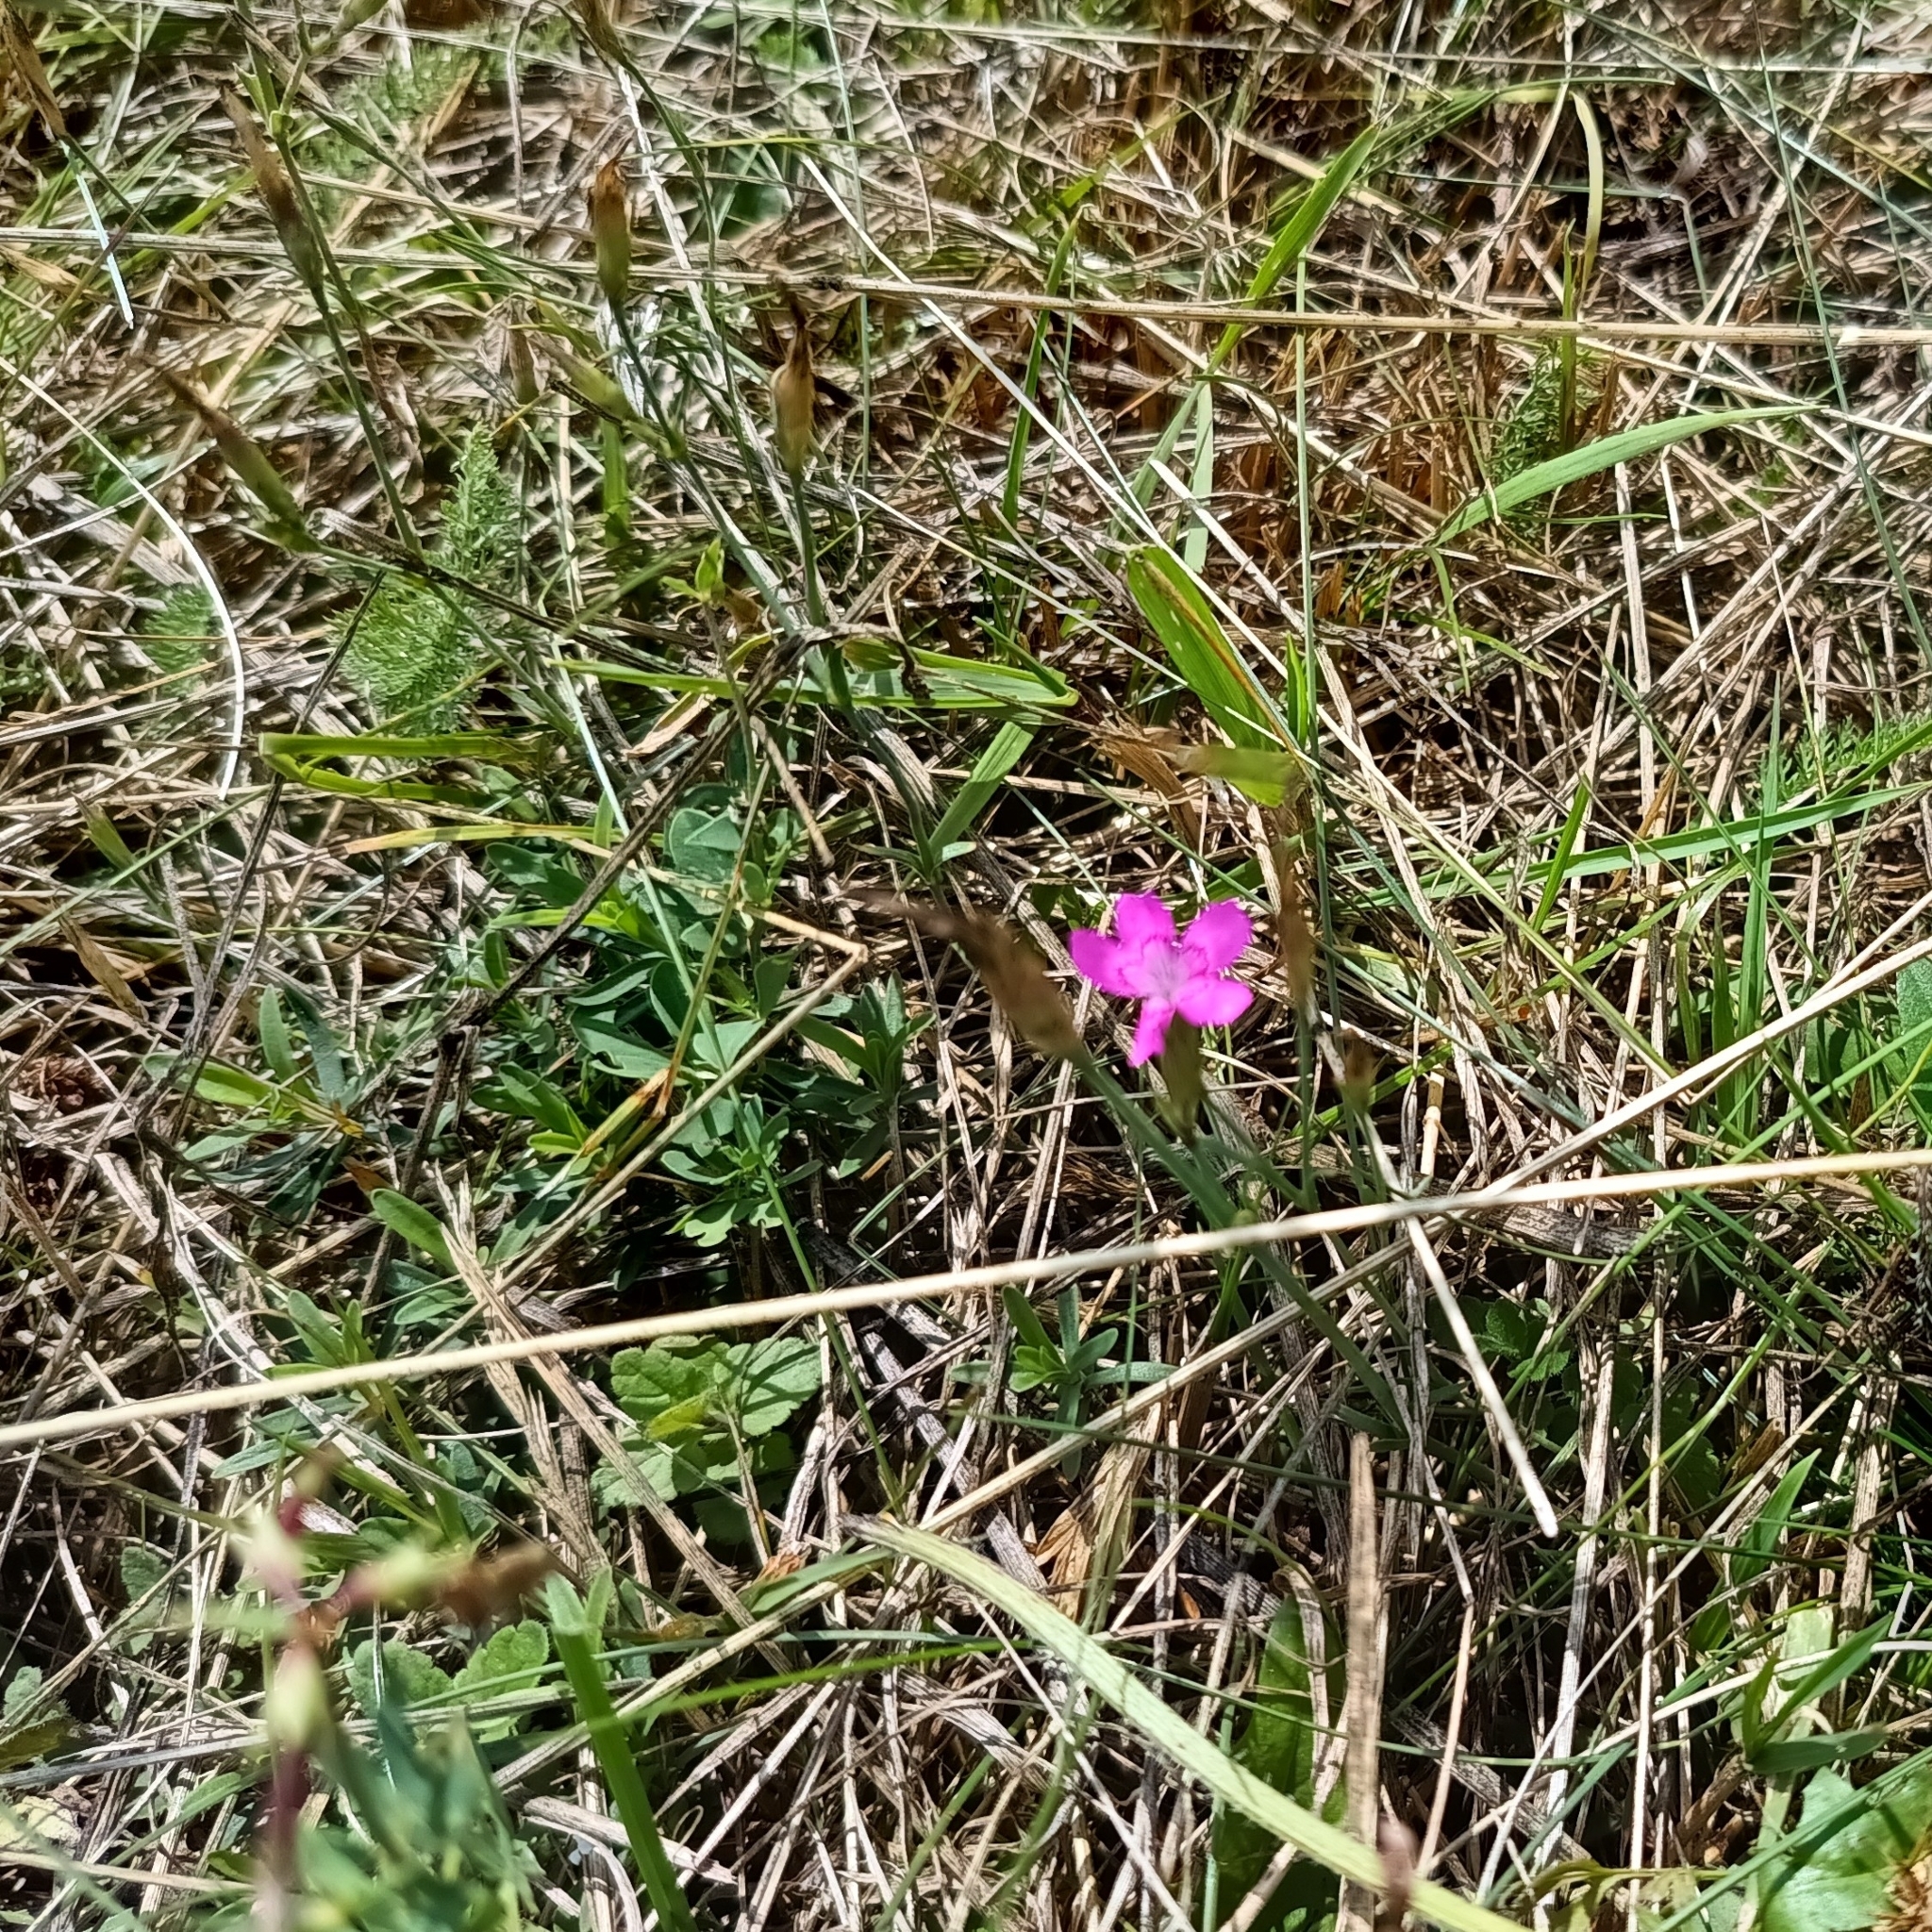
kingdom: Plantae
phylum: Tracheophyta
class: Magnoliopsida
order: Caryophyllales
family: Caryophyllaceae
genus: Dianthus
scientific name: Dianthus deltoides
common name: Maiden pink
